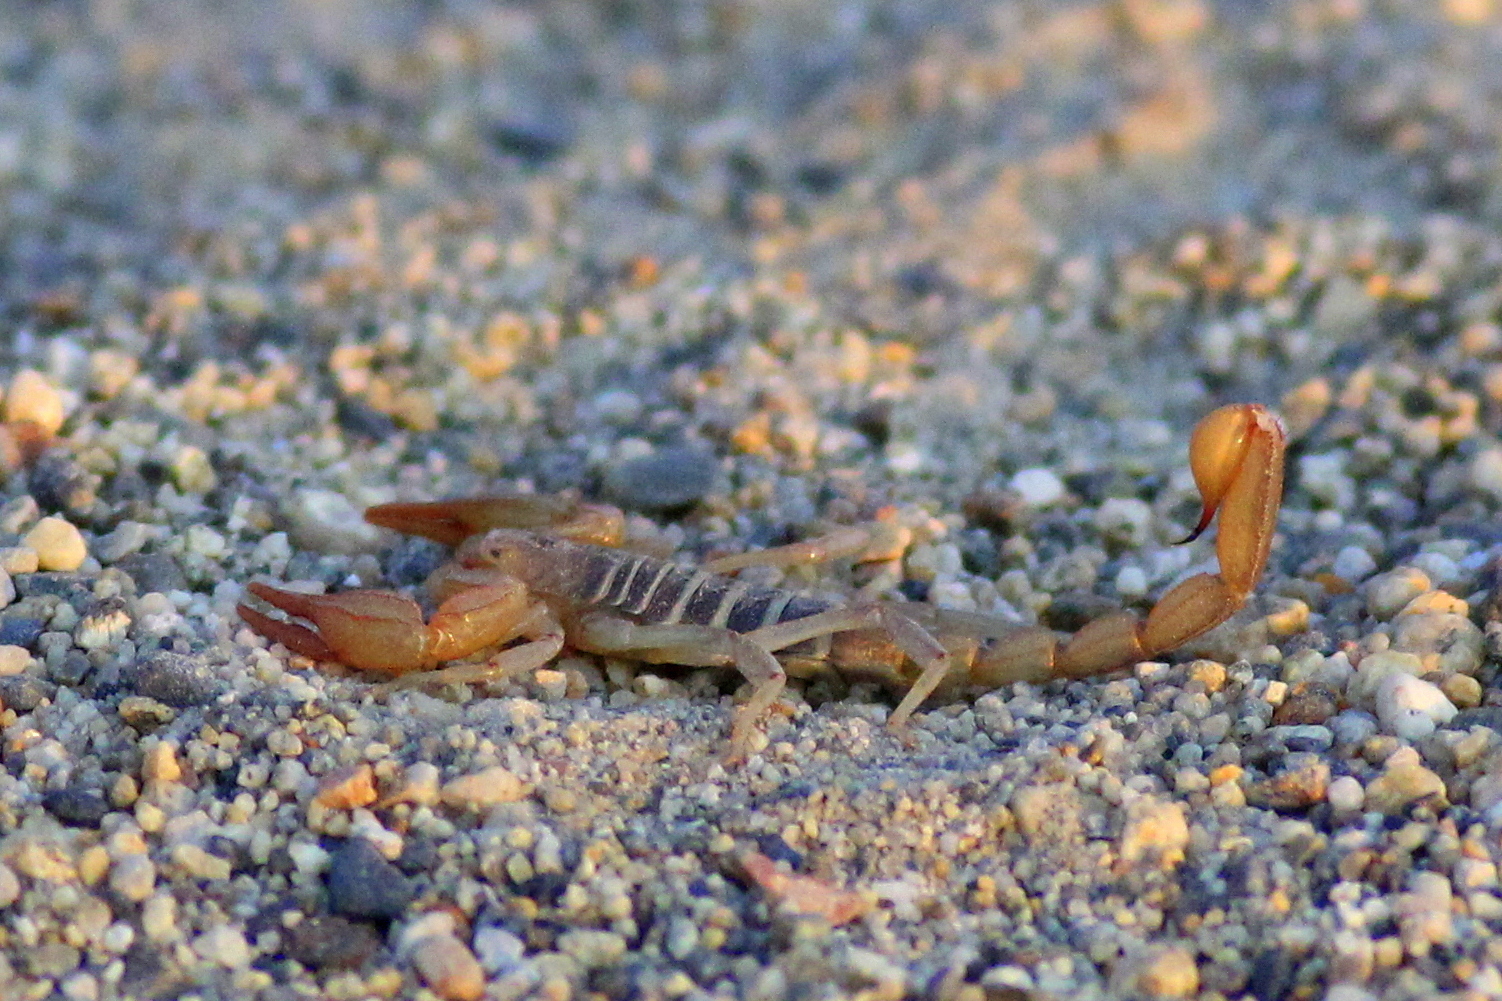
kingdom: Animalia
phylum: Arthropoda
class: Arachnida
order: Scorpiones
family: Vaejovidae
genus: Paruroctonus
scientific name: Paruroctonus boreus
